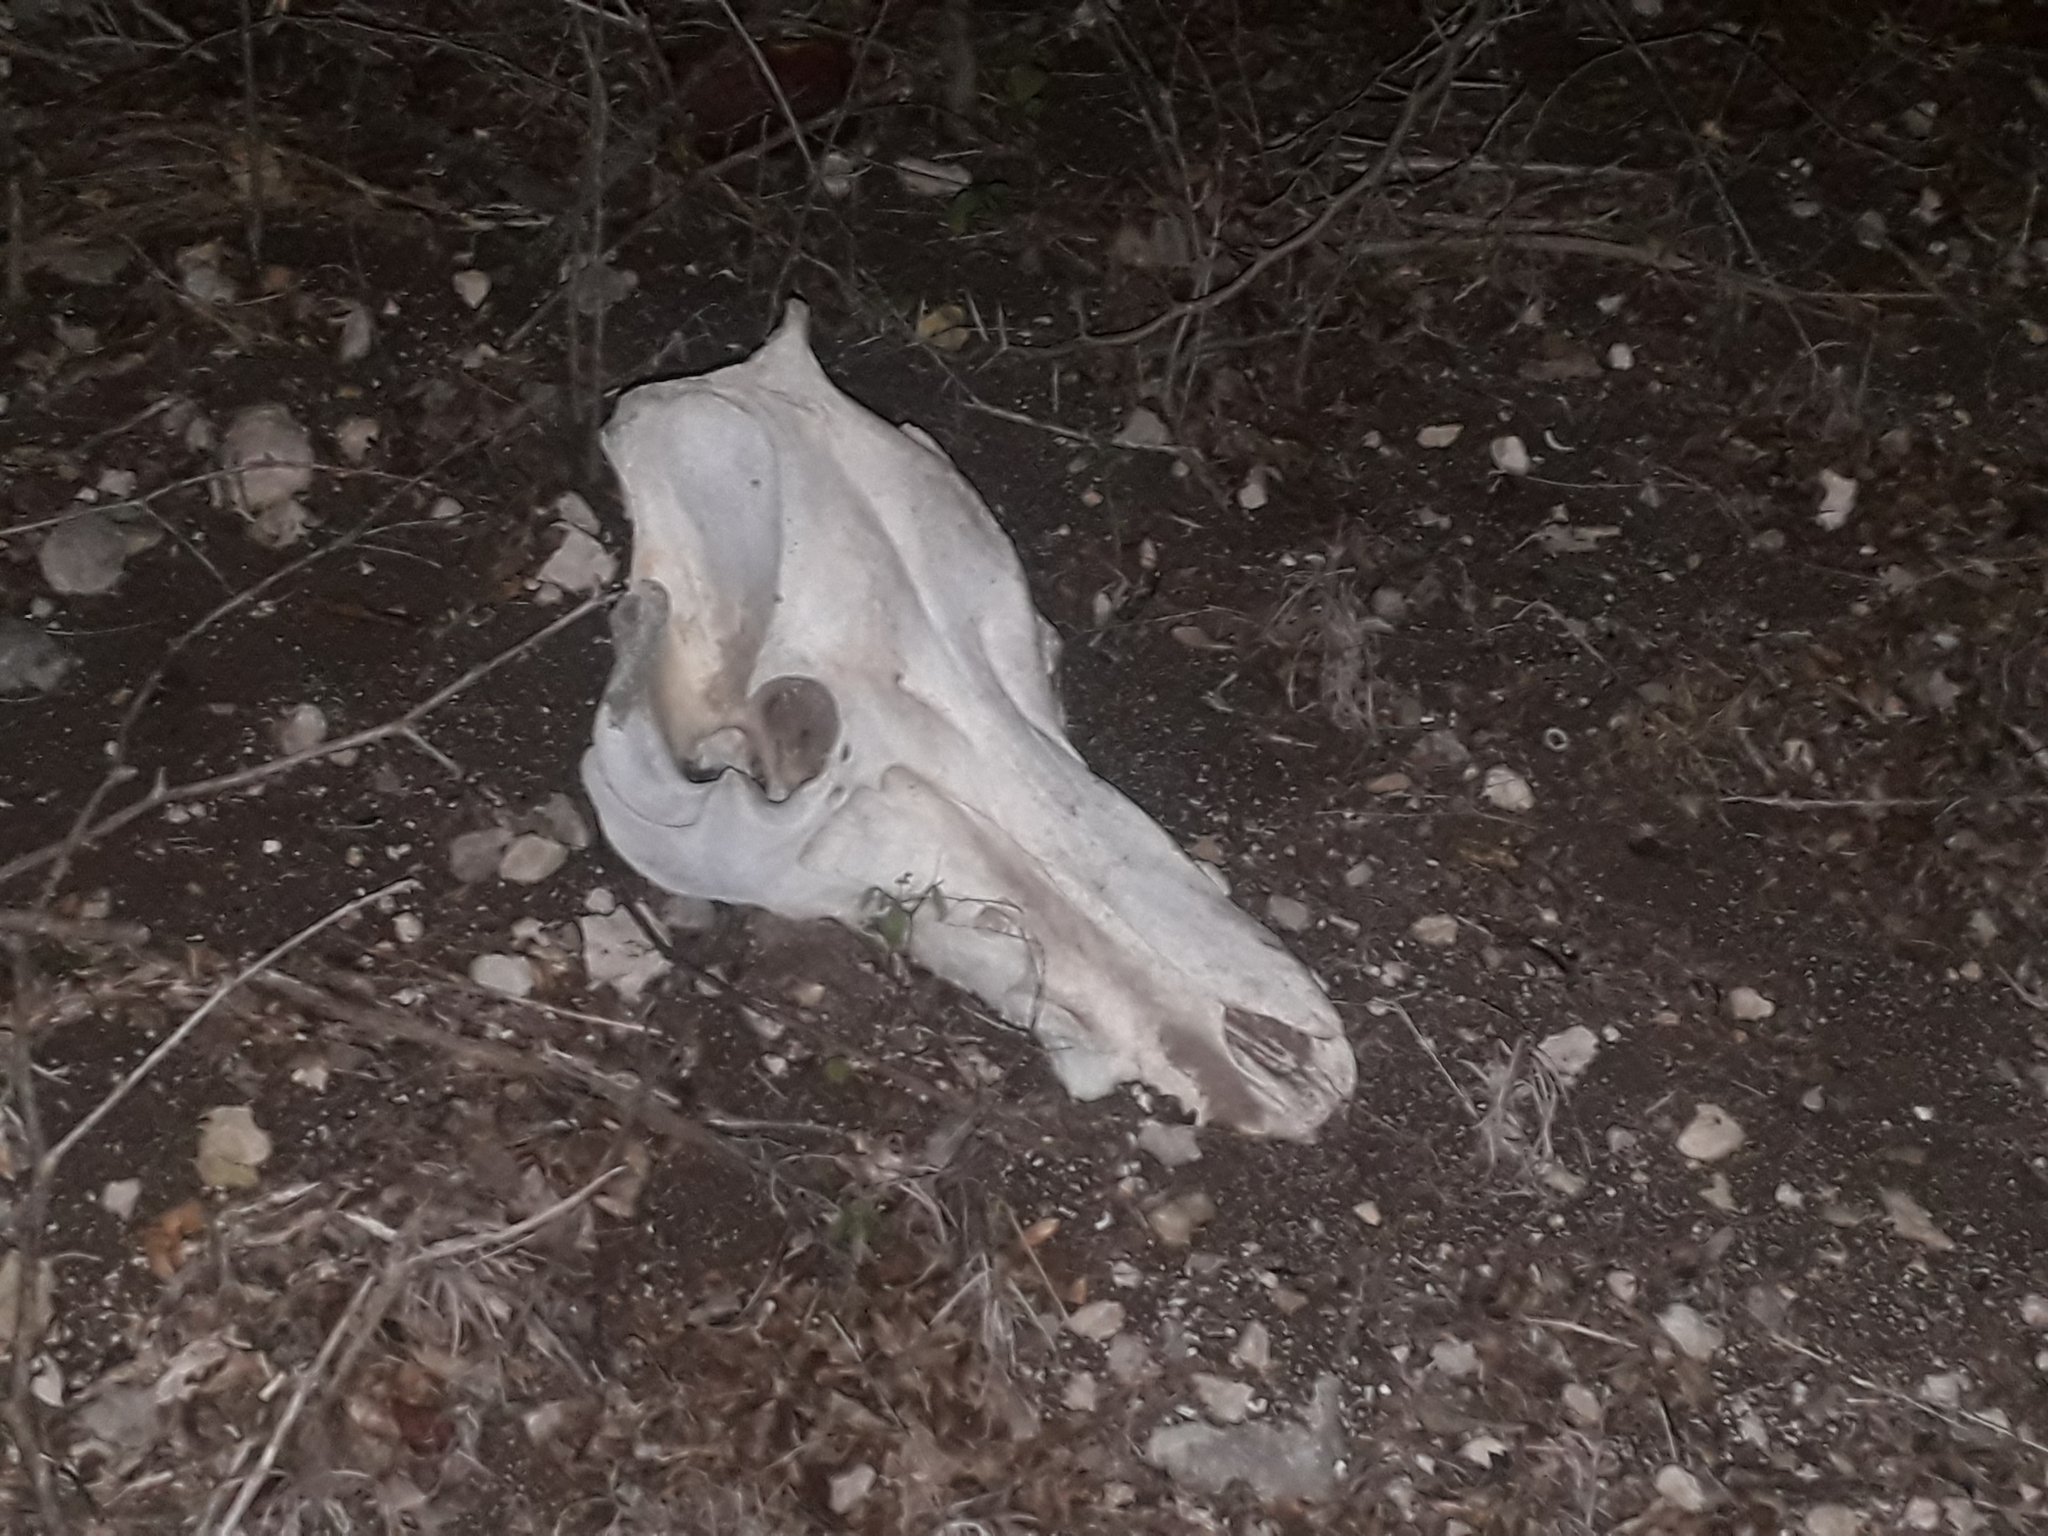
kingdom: Animalia
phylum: Chordata
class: Mammalia
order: Artiodactyla
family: Suidae
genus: Sus
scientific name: Sus scrofa
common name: Wild boar
